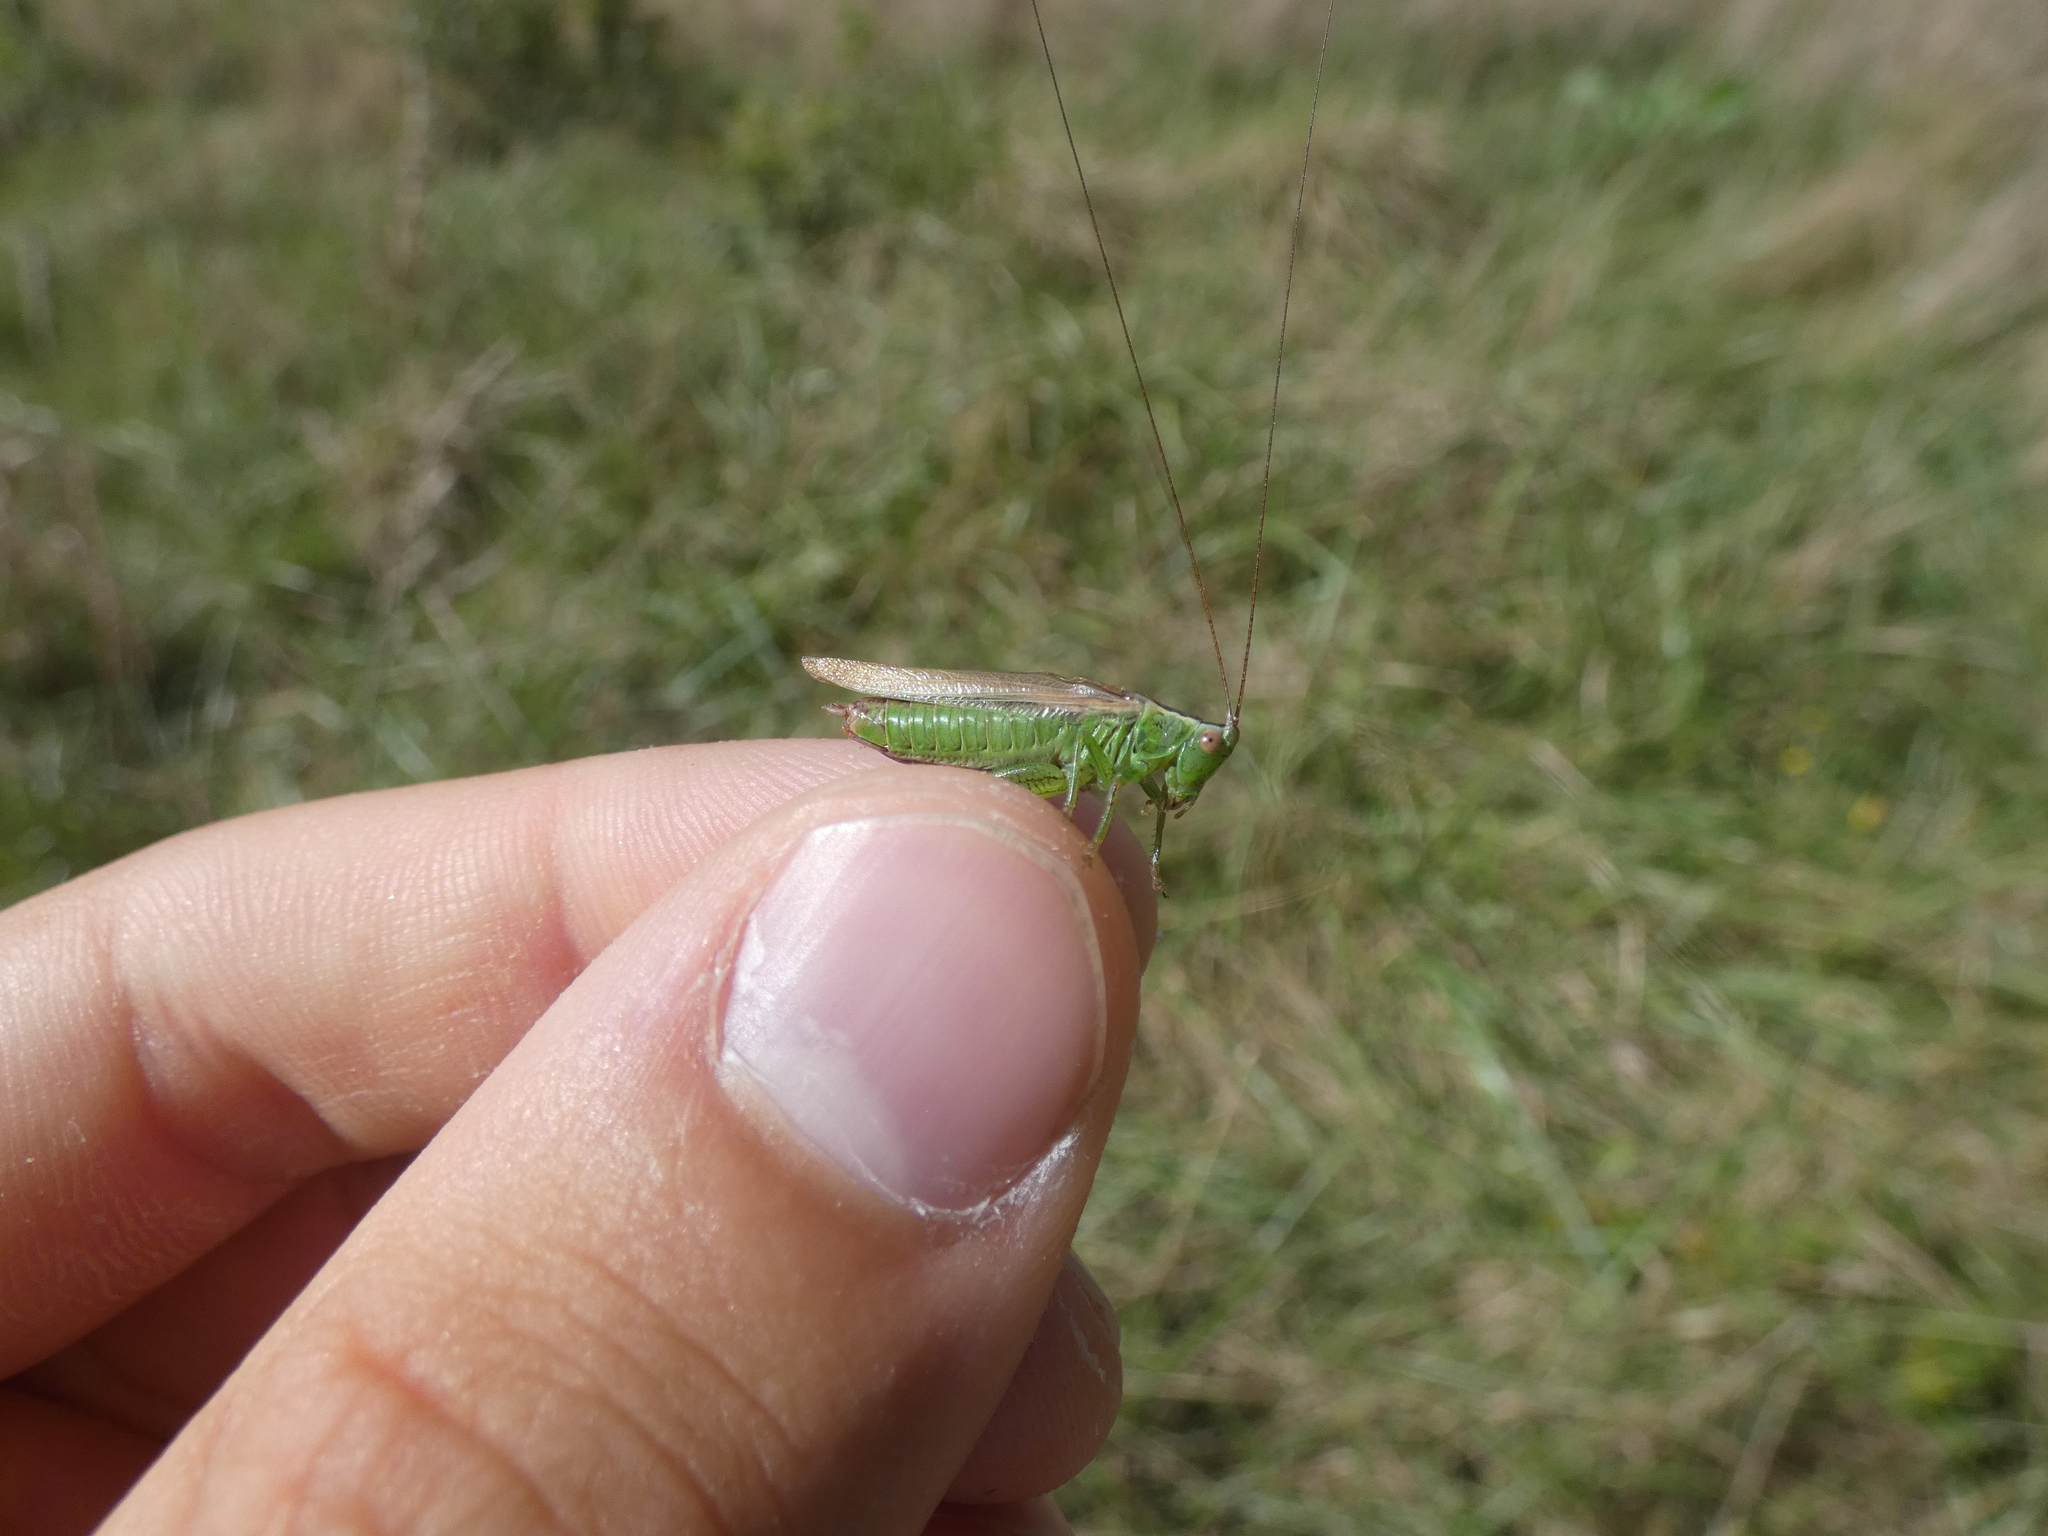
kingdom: Animalia
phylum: Arthropoda
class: Insecta
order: Orthoptera
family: Tettigoniidae
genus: Conocephalus
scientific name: Conocephalus fuscus
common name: Long-winged conehead
